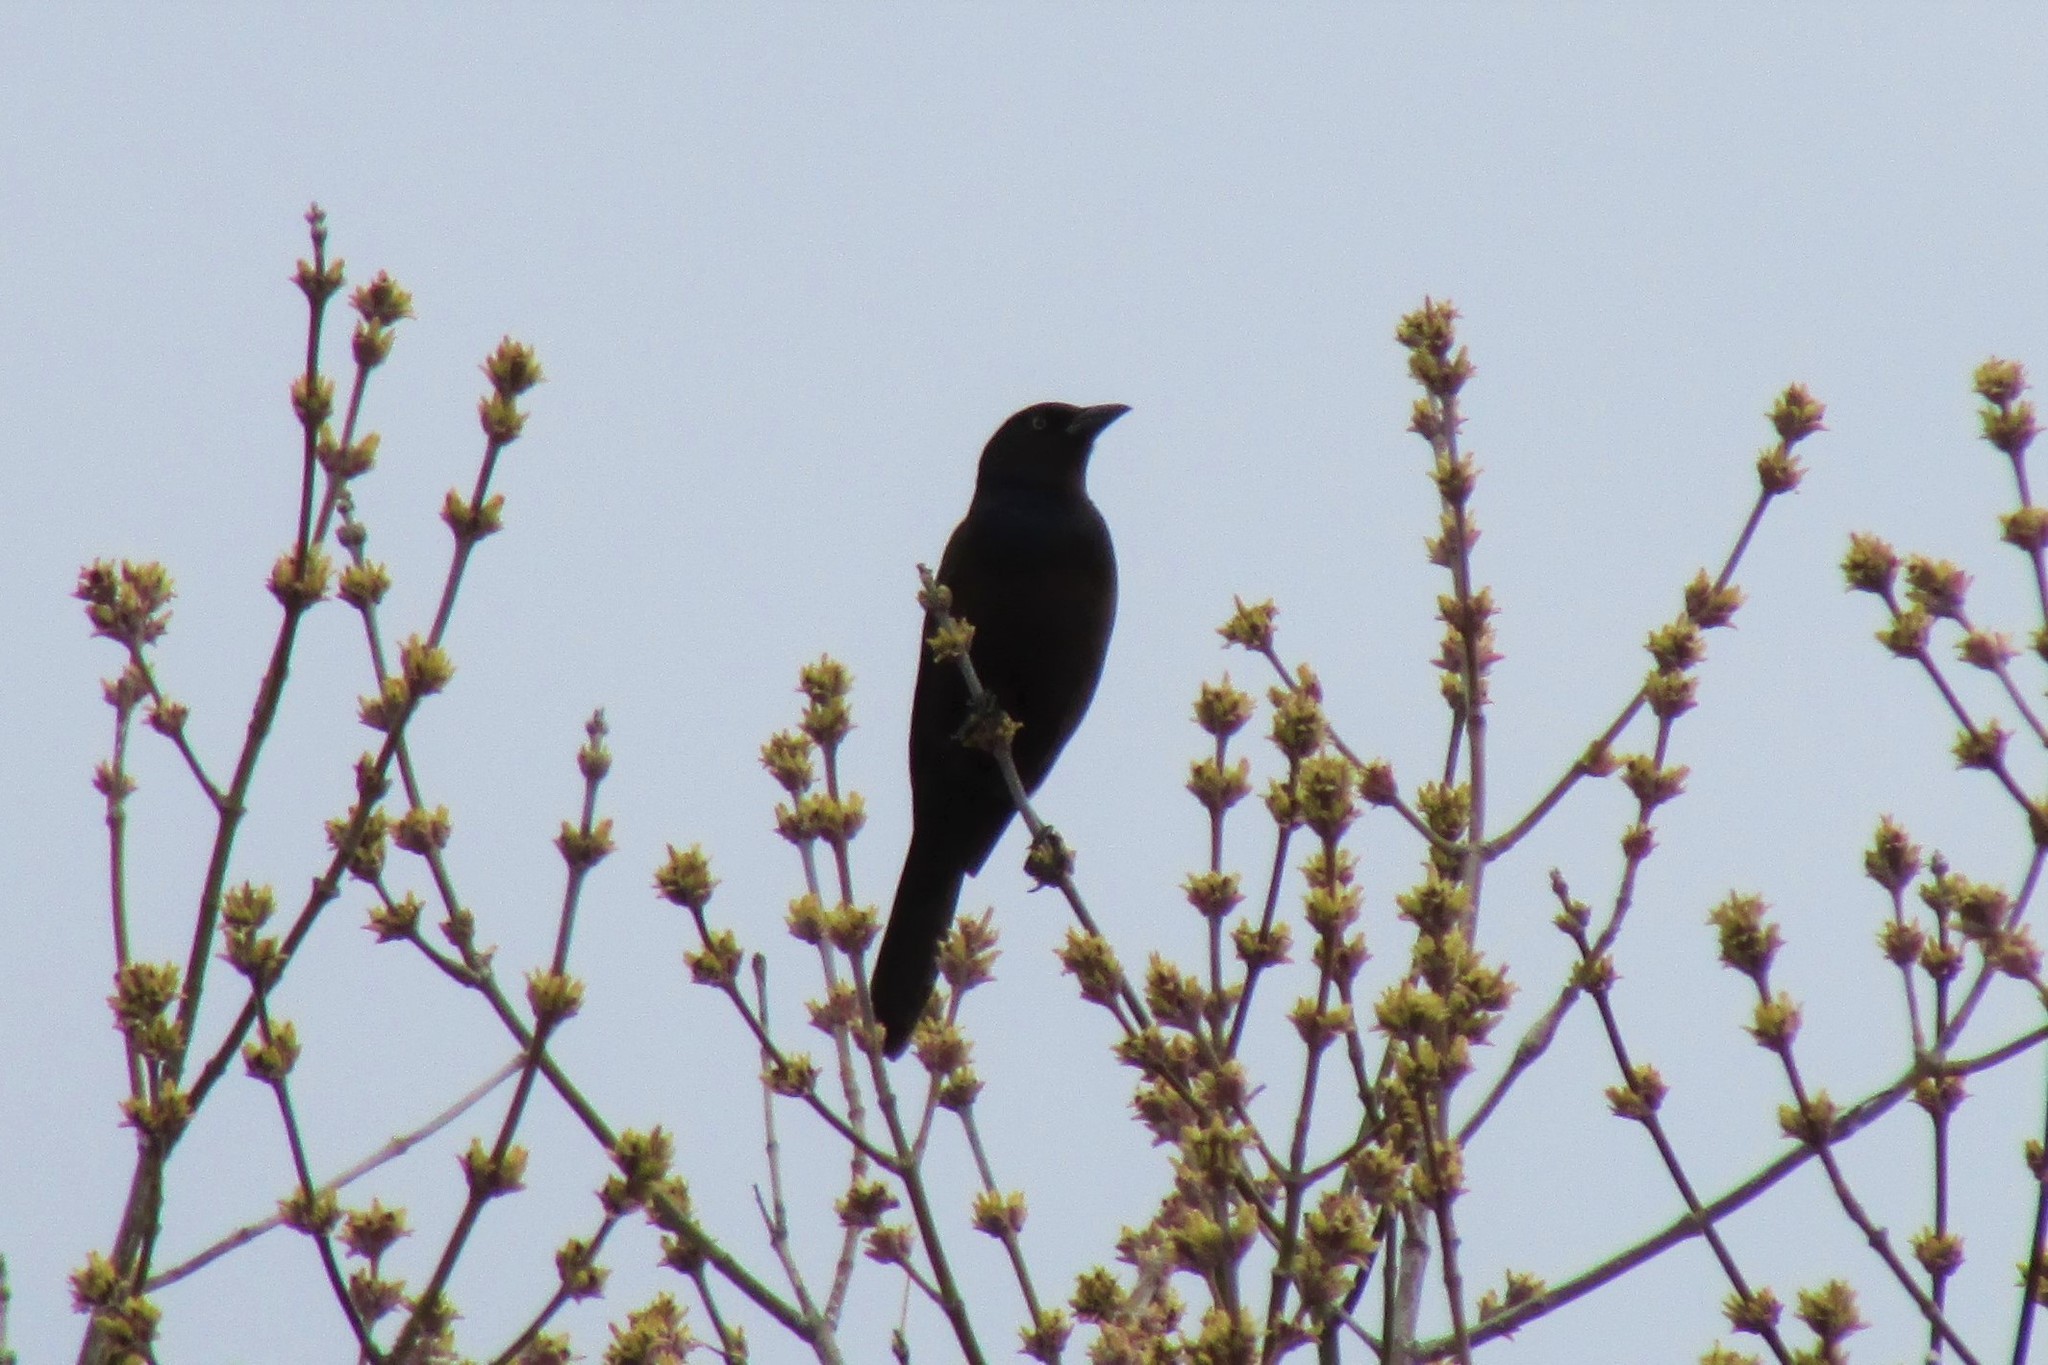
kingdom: Animalia
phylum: Chordata
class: Aves
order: Passeriformes
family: Icteridae
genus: Quiscalus
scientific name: Quiscalus quiscula
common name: Common grackle
